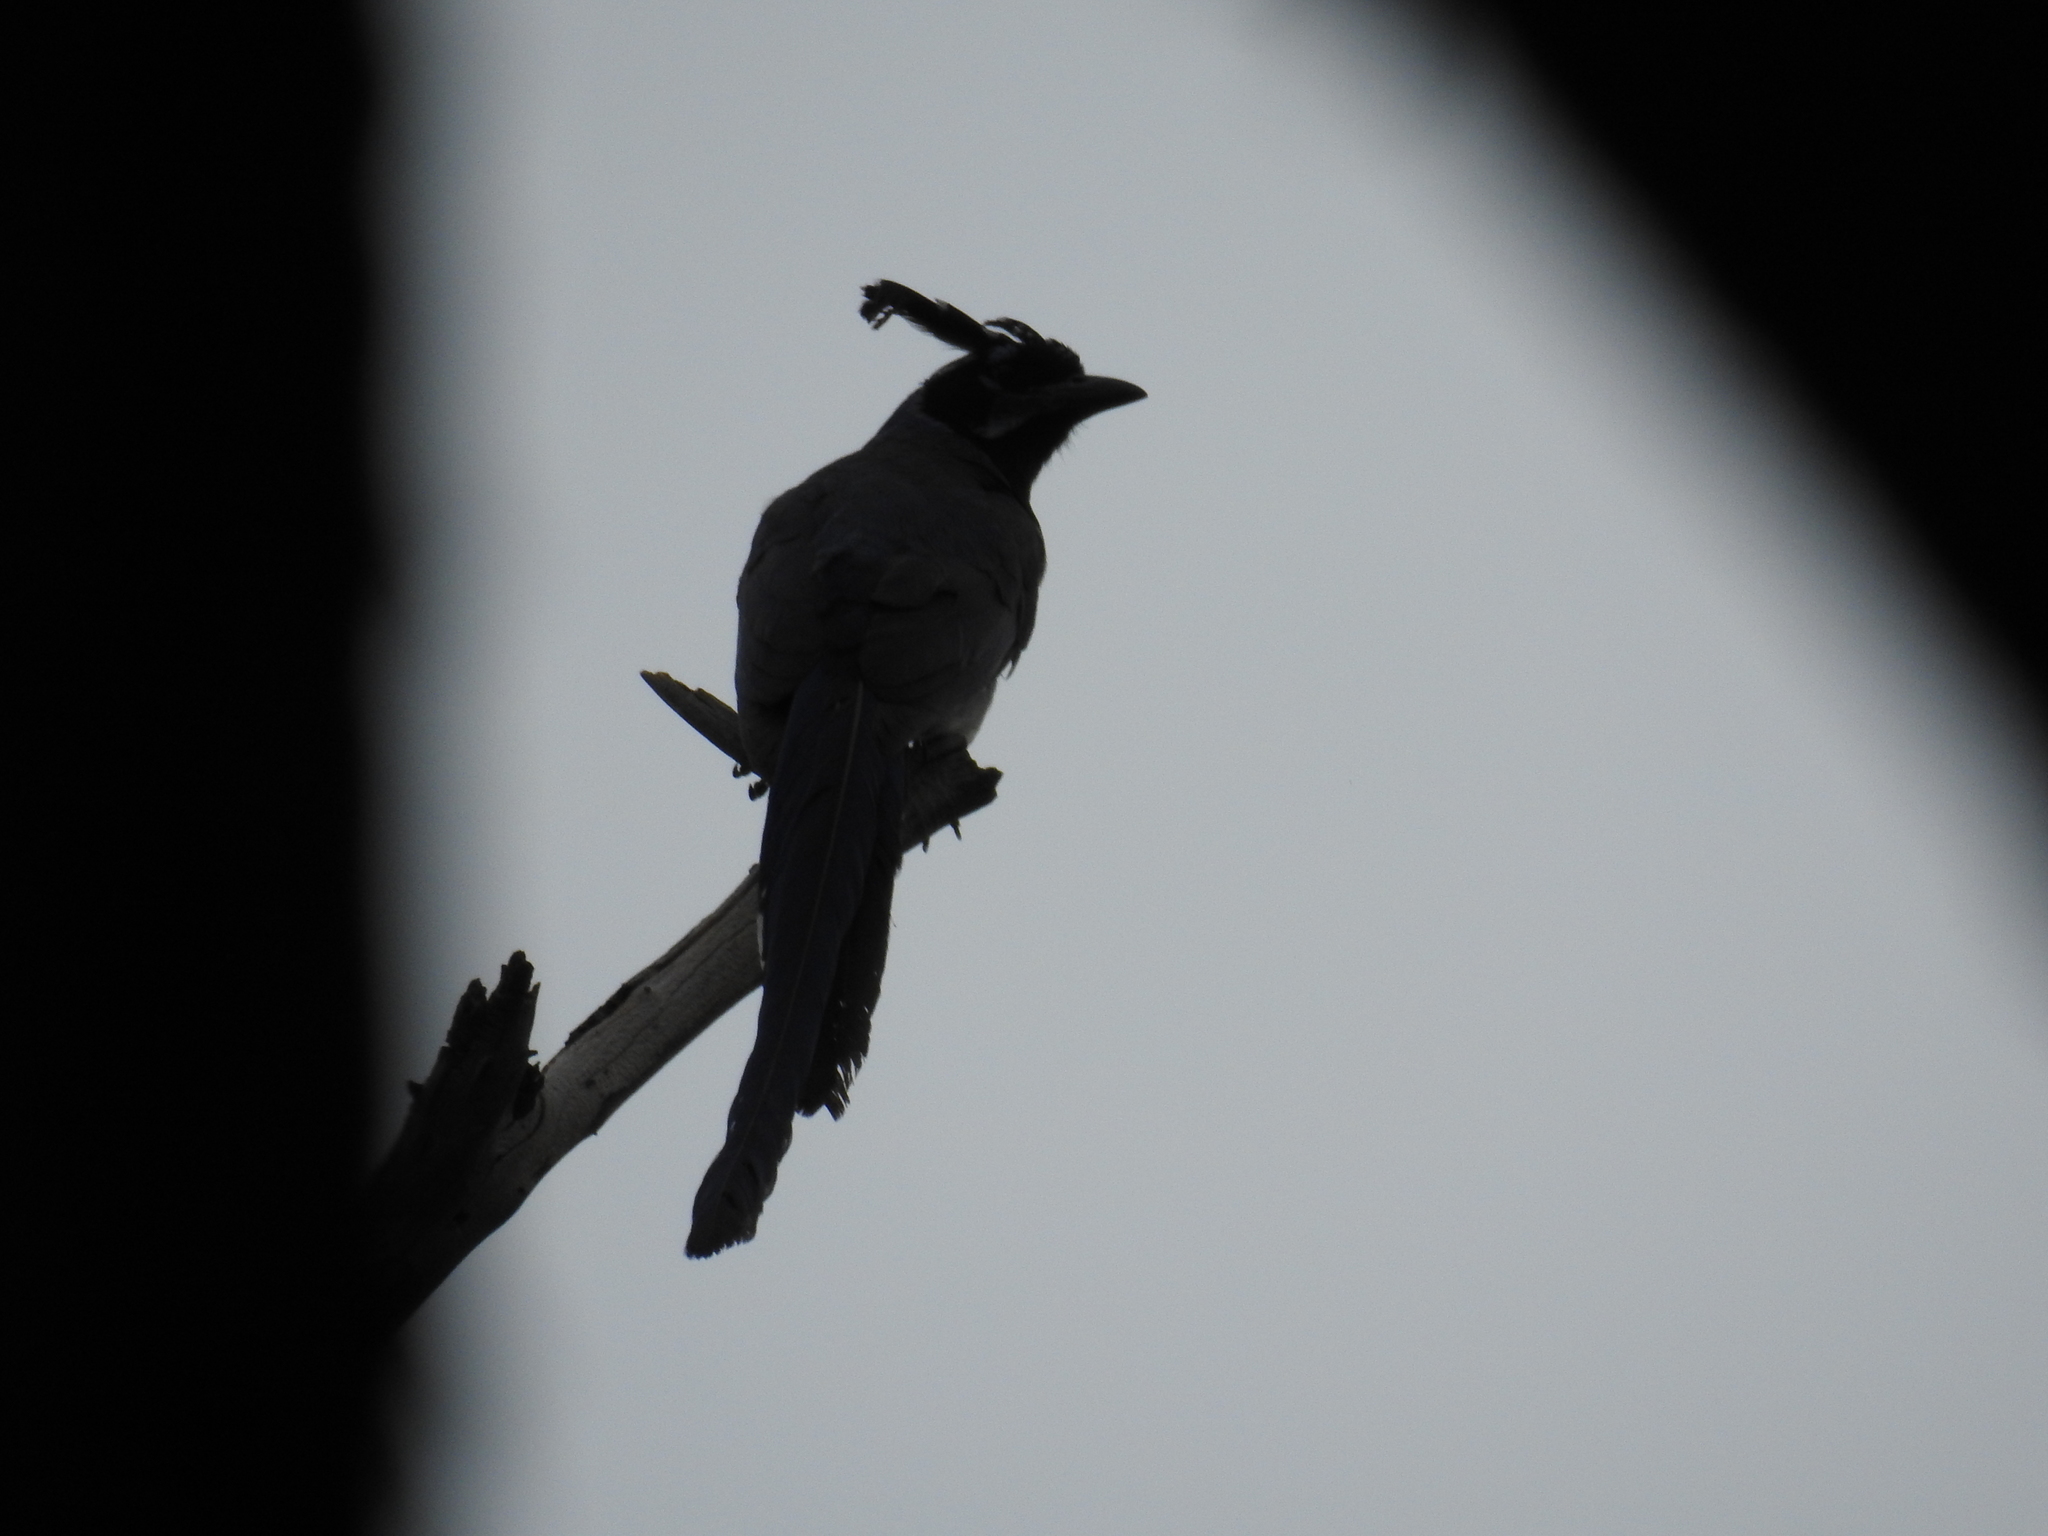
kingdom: Animalia
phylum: Chordata
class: Aves
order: Passeriformes
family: Corvidae
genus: Calocitta
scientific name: Calocitta colliei
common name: Black-throated magpie-jay
